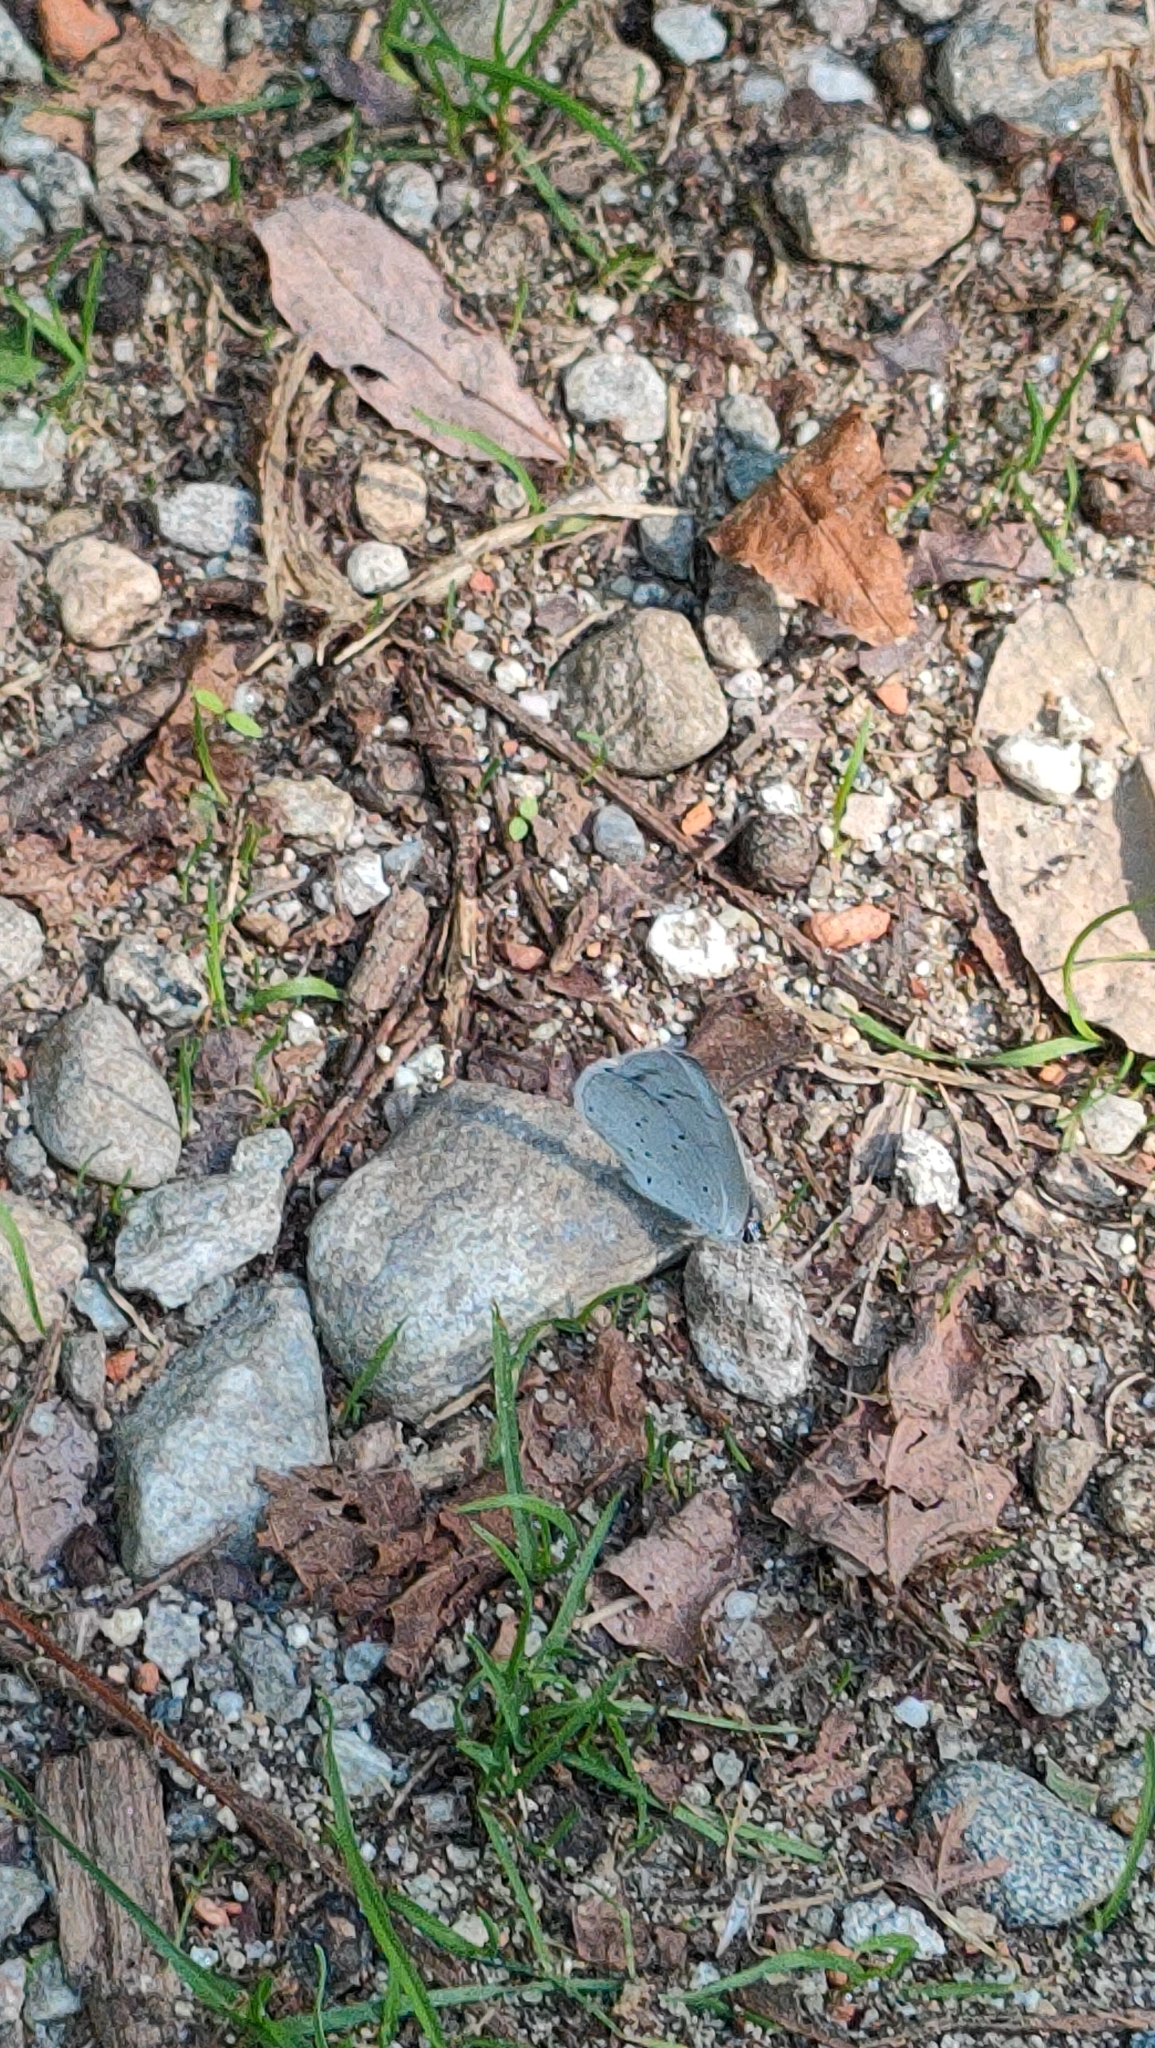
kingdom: Animalia
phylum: Arthropoda
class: Insecta
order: Lepidoptera
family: Lycaenidae
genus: Celastrina
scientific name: Celastrina argiolus
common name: Holly blue
